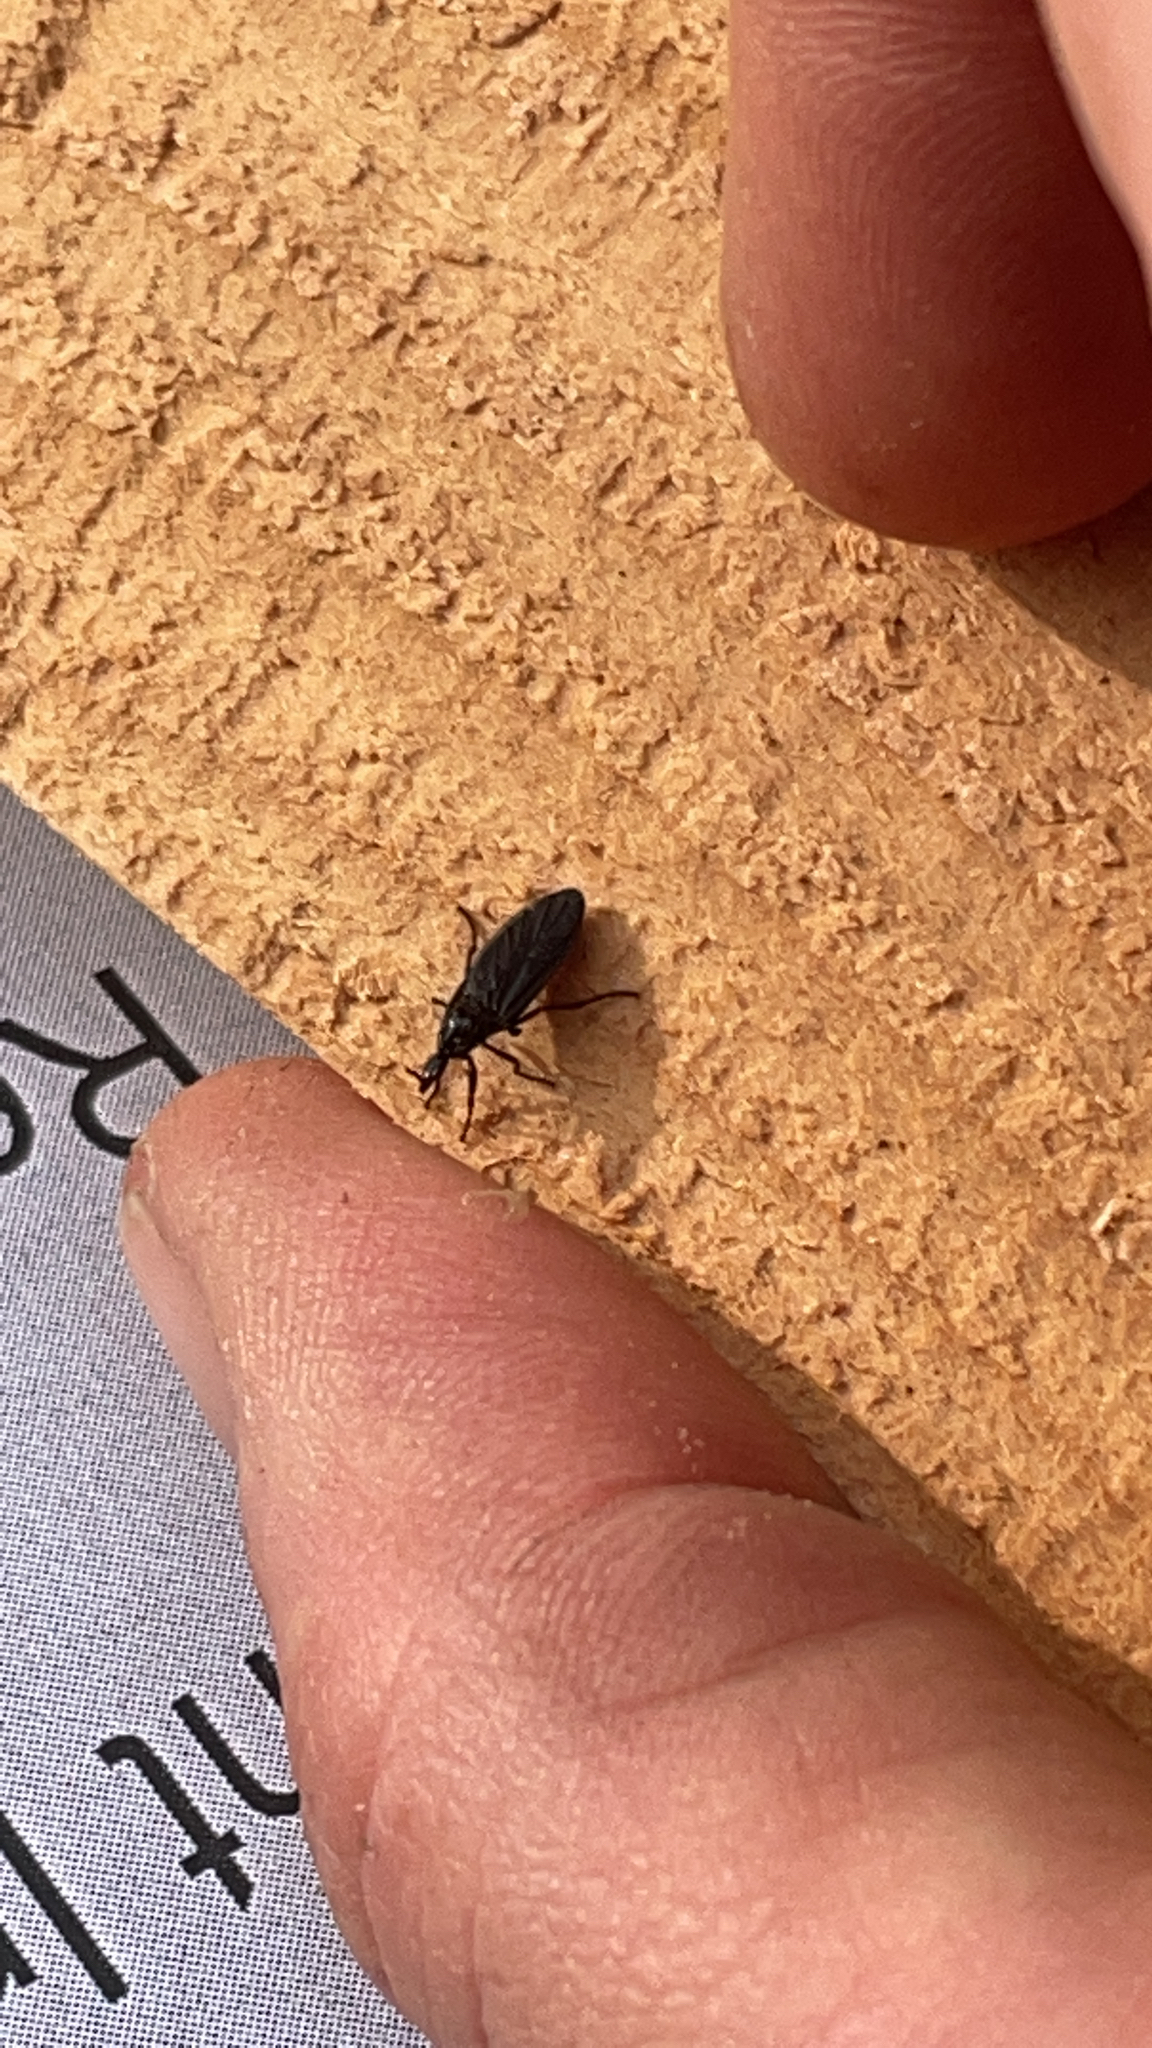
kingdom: Animalia
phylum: Arthropoda
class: Insecta
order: Diptera
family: Bibionidae
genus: Dilophus
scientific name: Dilophus orbatus
